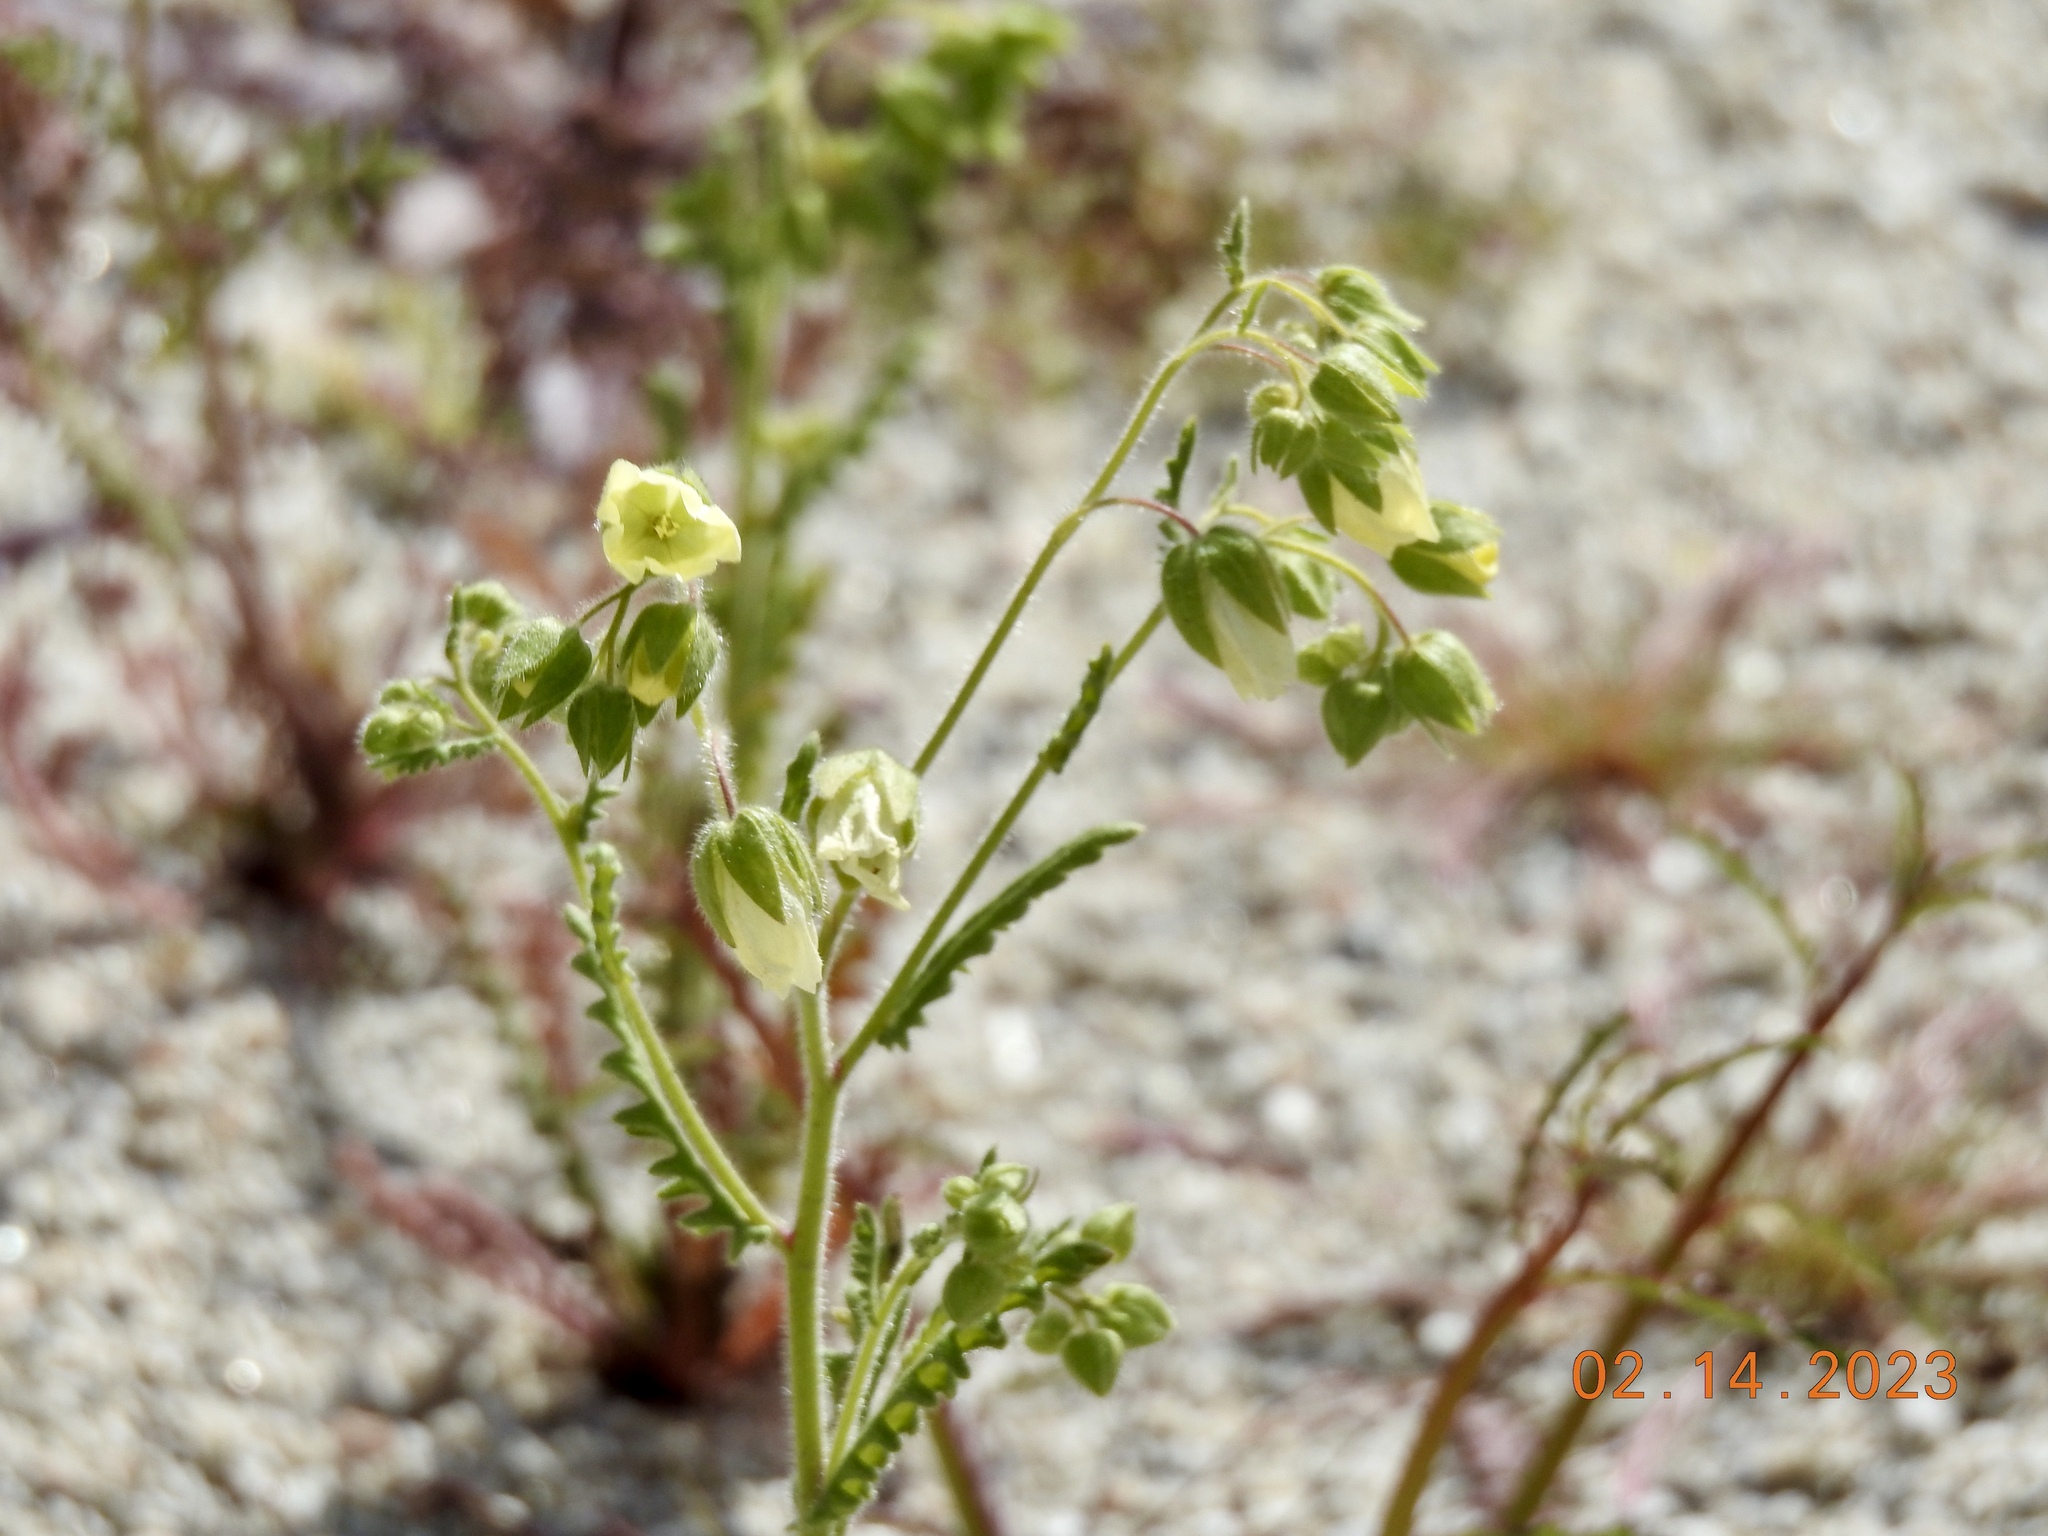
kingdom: Plantae
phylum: Tracheophyta
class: Magnoliopsida
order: Boraginales
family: Hydrophyllaceae
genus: Emmenanthe
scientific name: Emmenanthe penduliflora
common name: Whispering-bells
